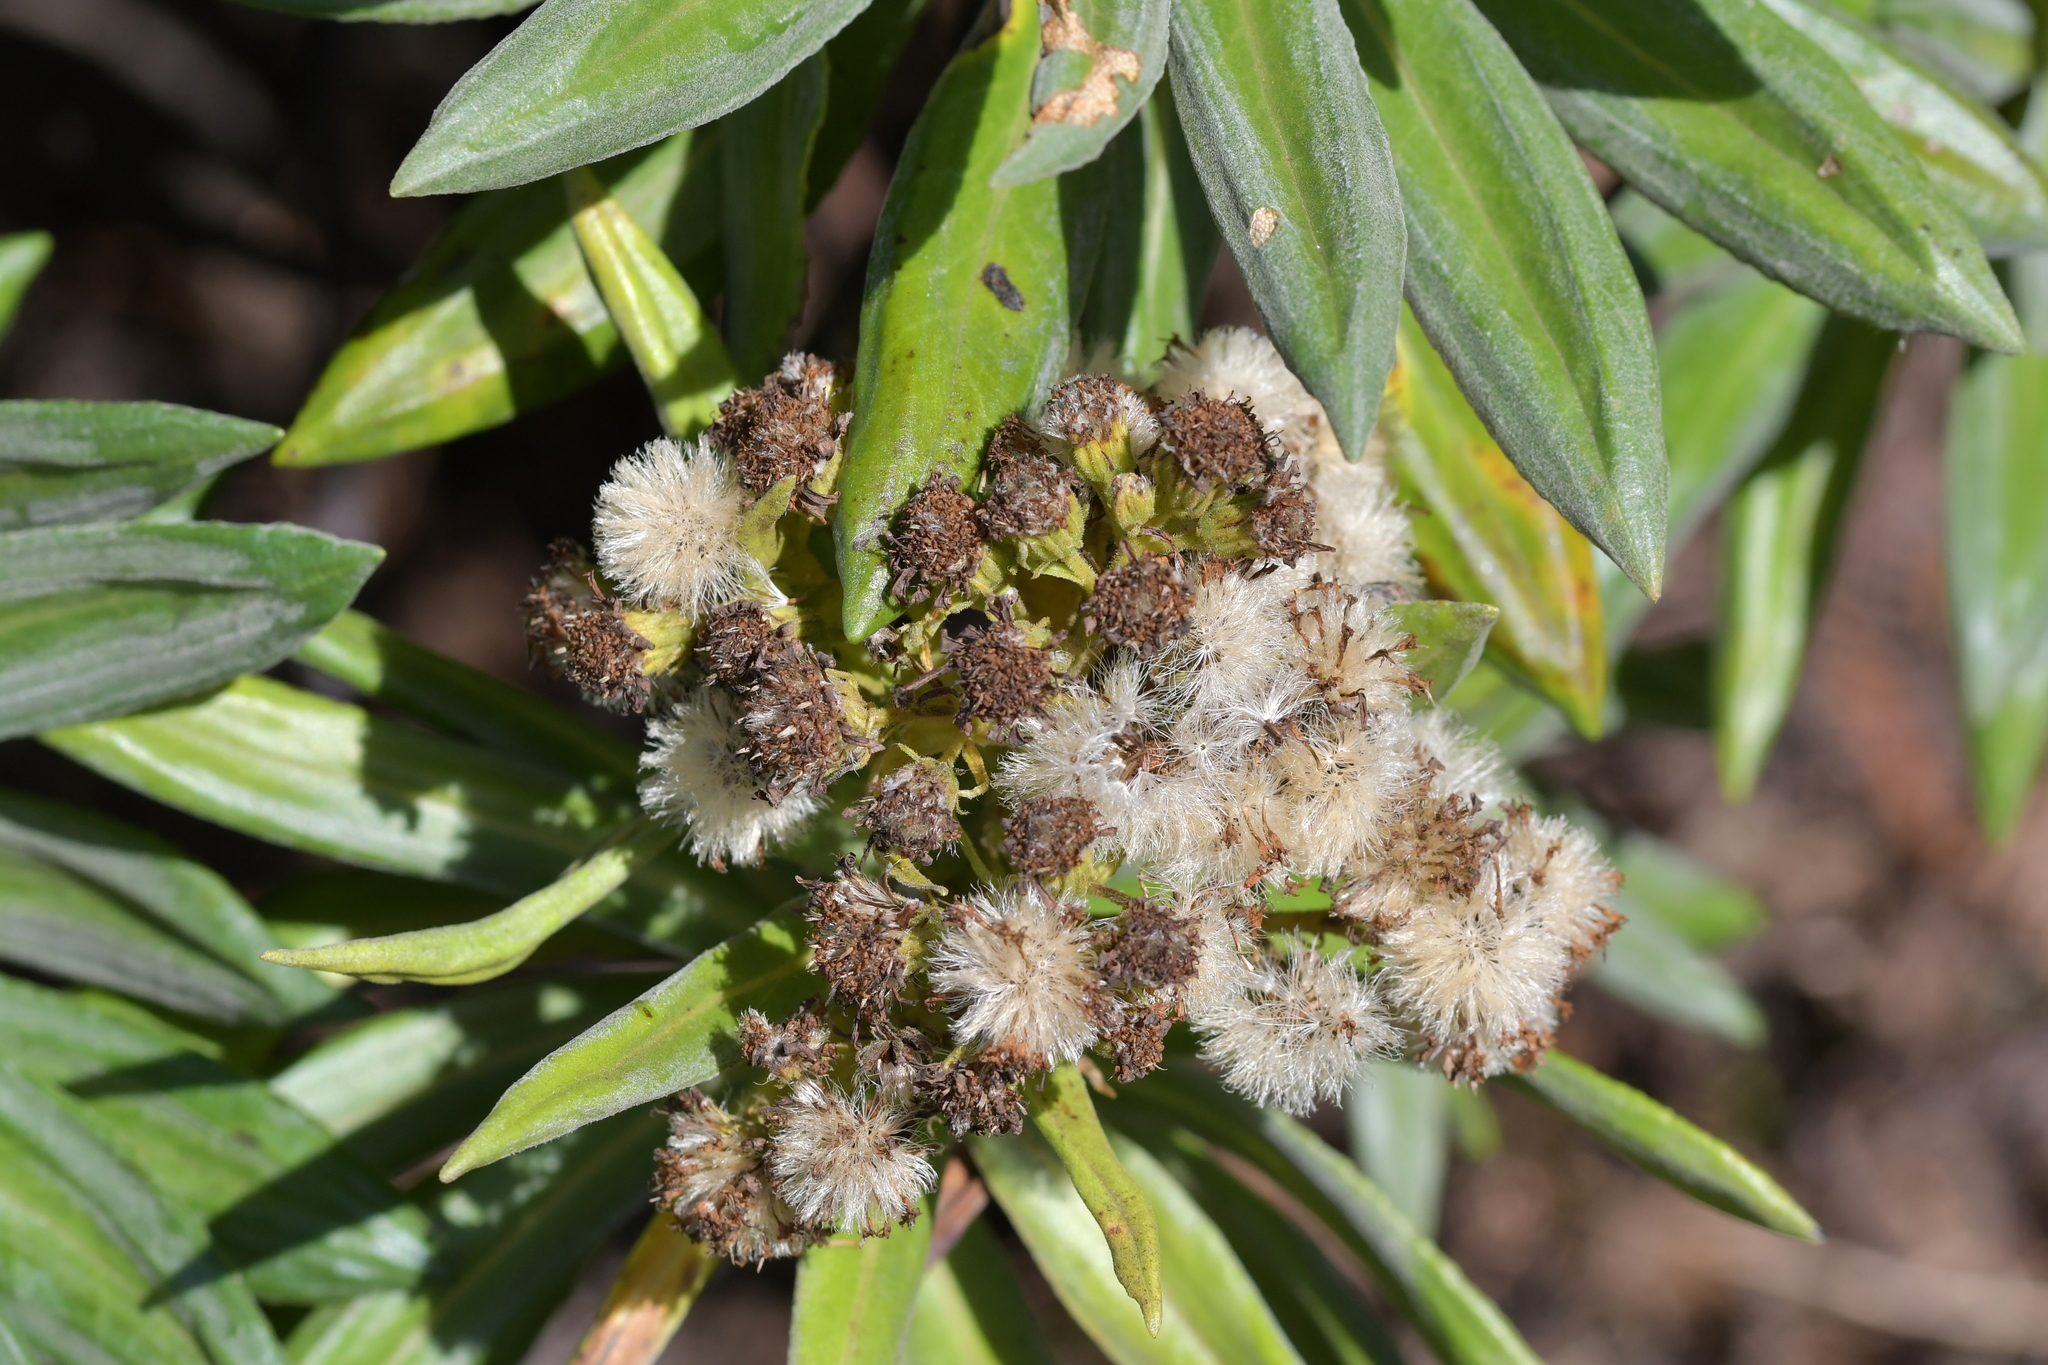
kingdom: Plantae
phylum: Tracheophyta
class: Magnoliopsida
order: Asterales
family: Asteraceae
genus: Brachyglottis
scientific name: Brachyglottis huntii
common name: Chatham island christmas tree
